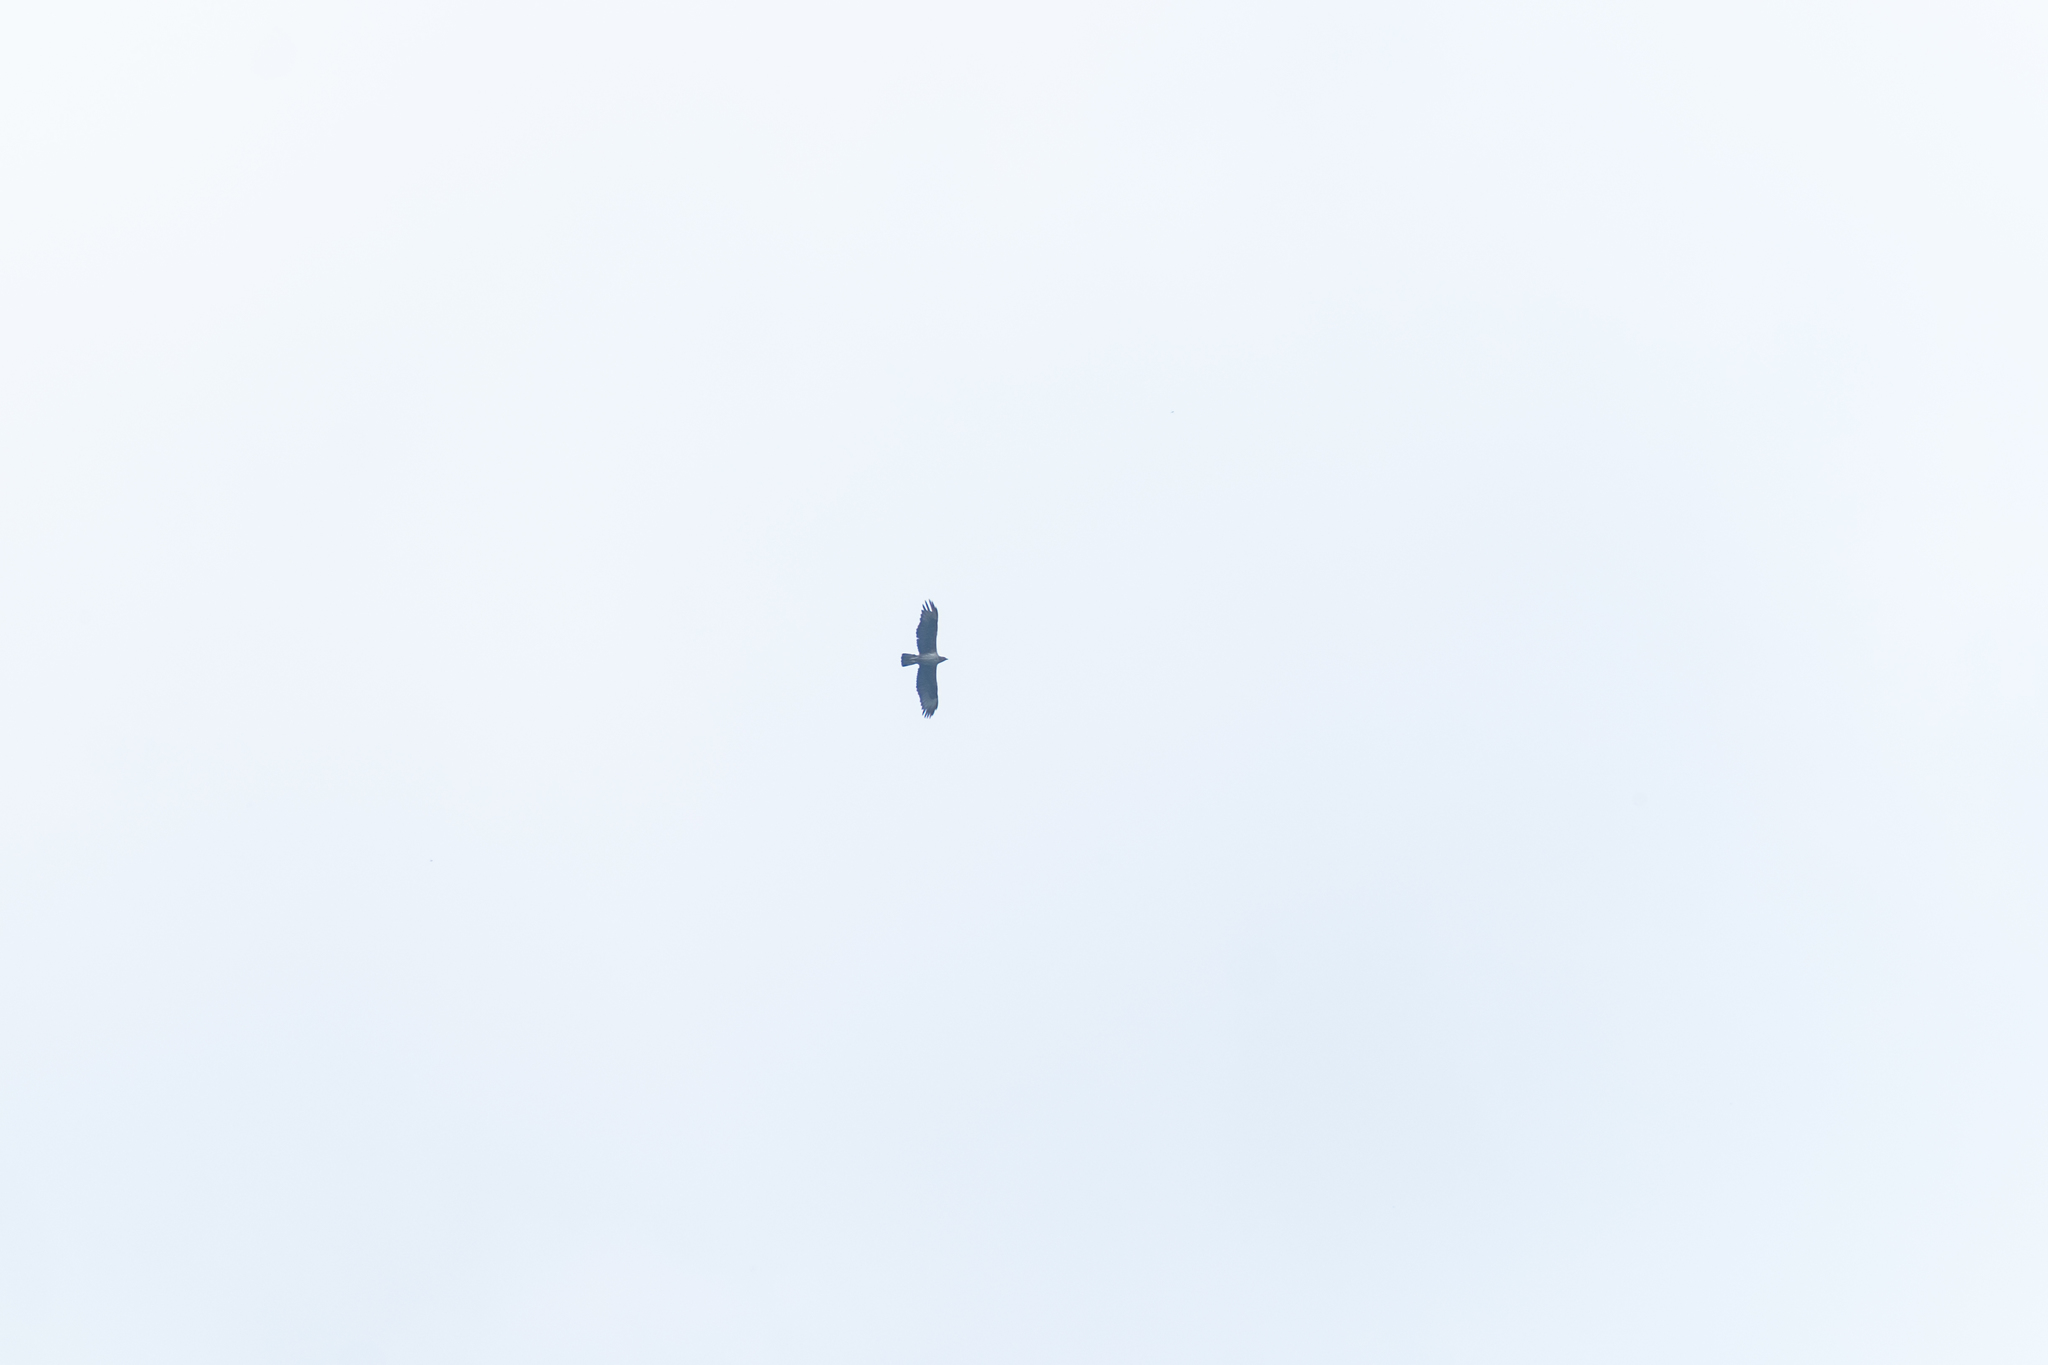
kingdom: Animalia
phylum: Chordata
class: Aves
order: Accipitriformes
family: Accipitridae
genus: Aquila
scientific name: Aquila fasciata
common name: Bonelli's eagle
